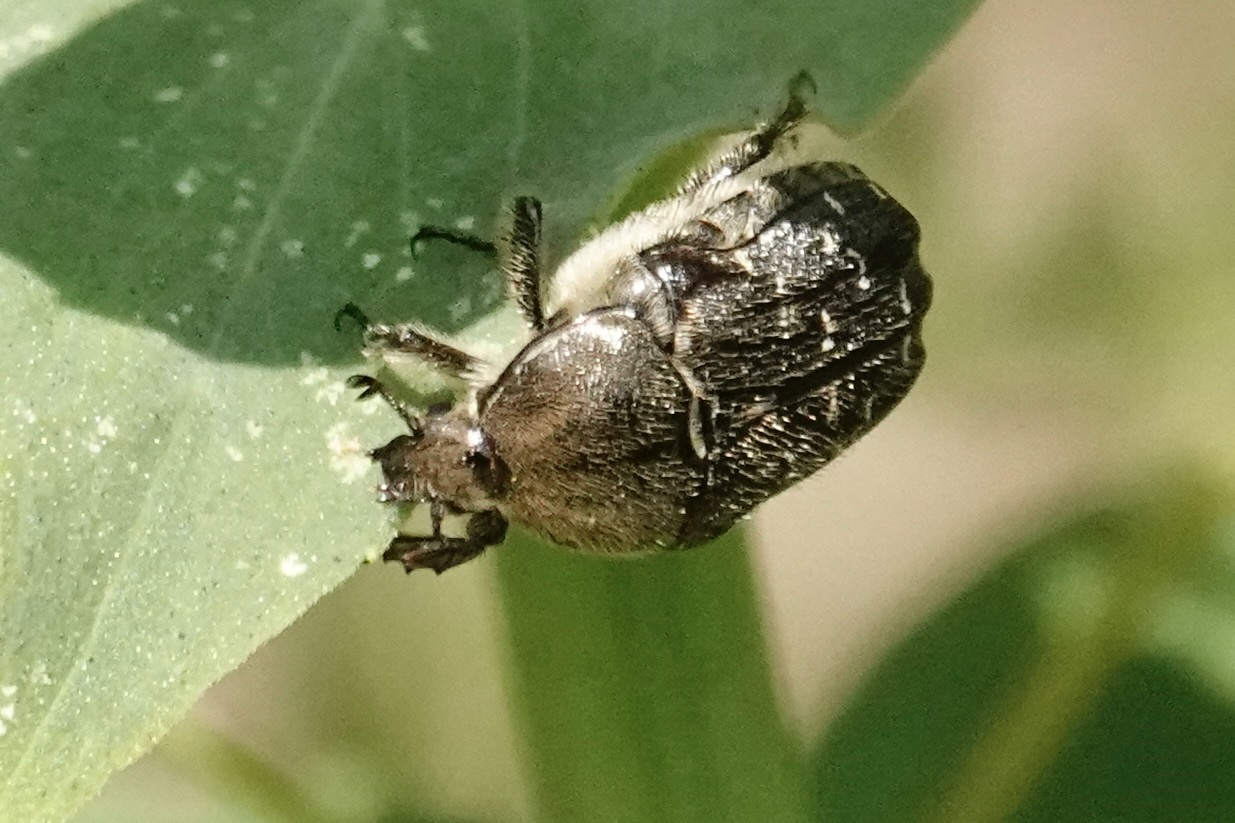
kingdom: Animalia
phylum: Arthropoda
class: Insecta
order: Coleoptera
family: Scarabaeidae
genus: Euphoria
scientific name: Euphoria sepulcralis
